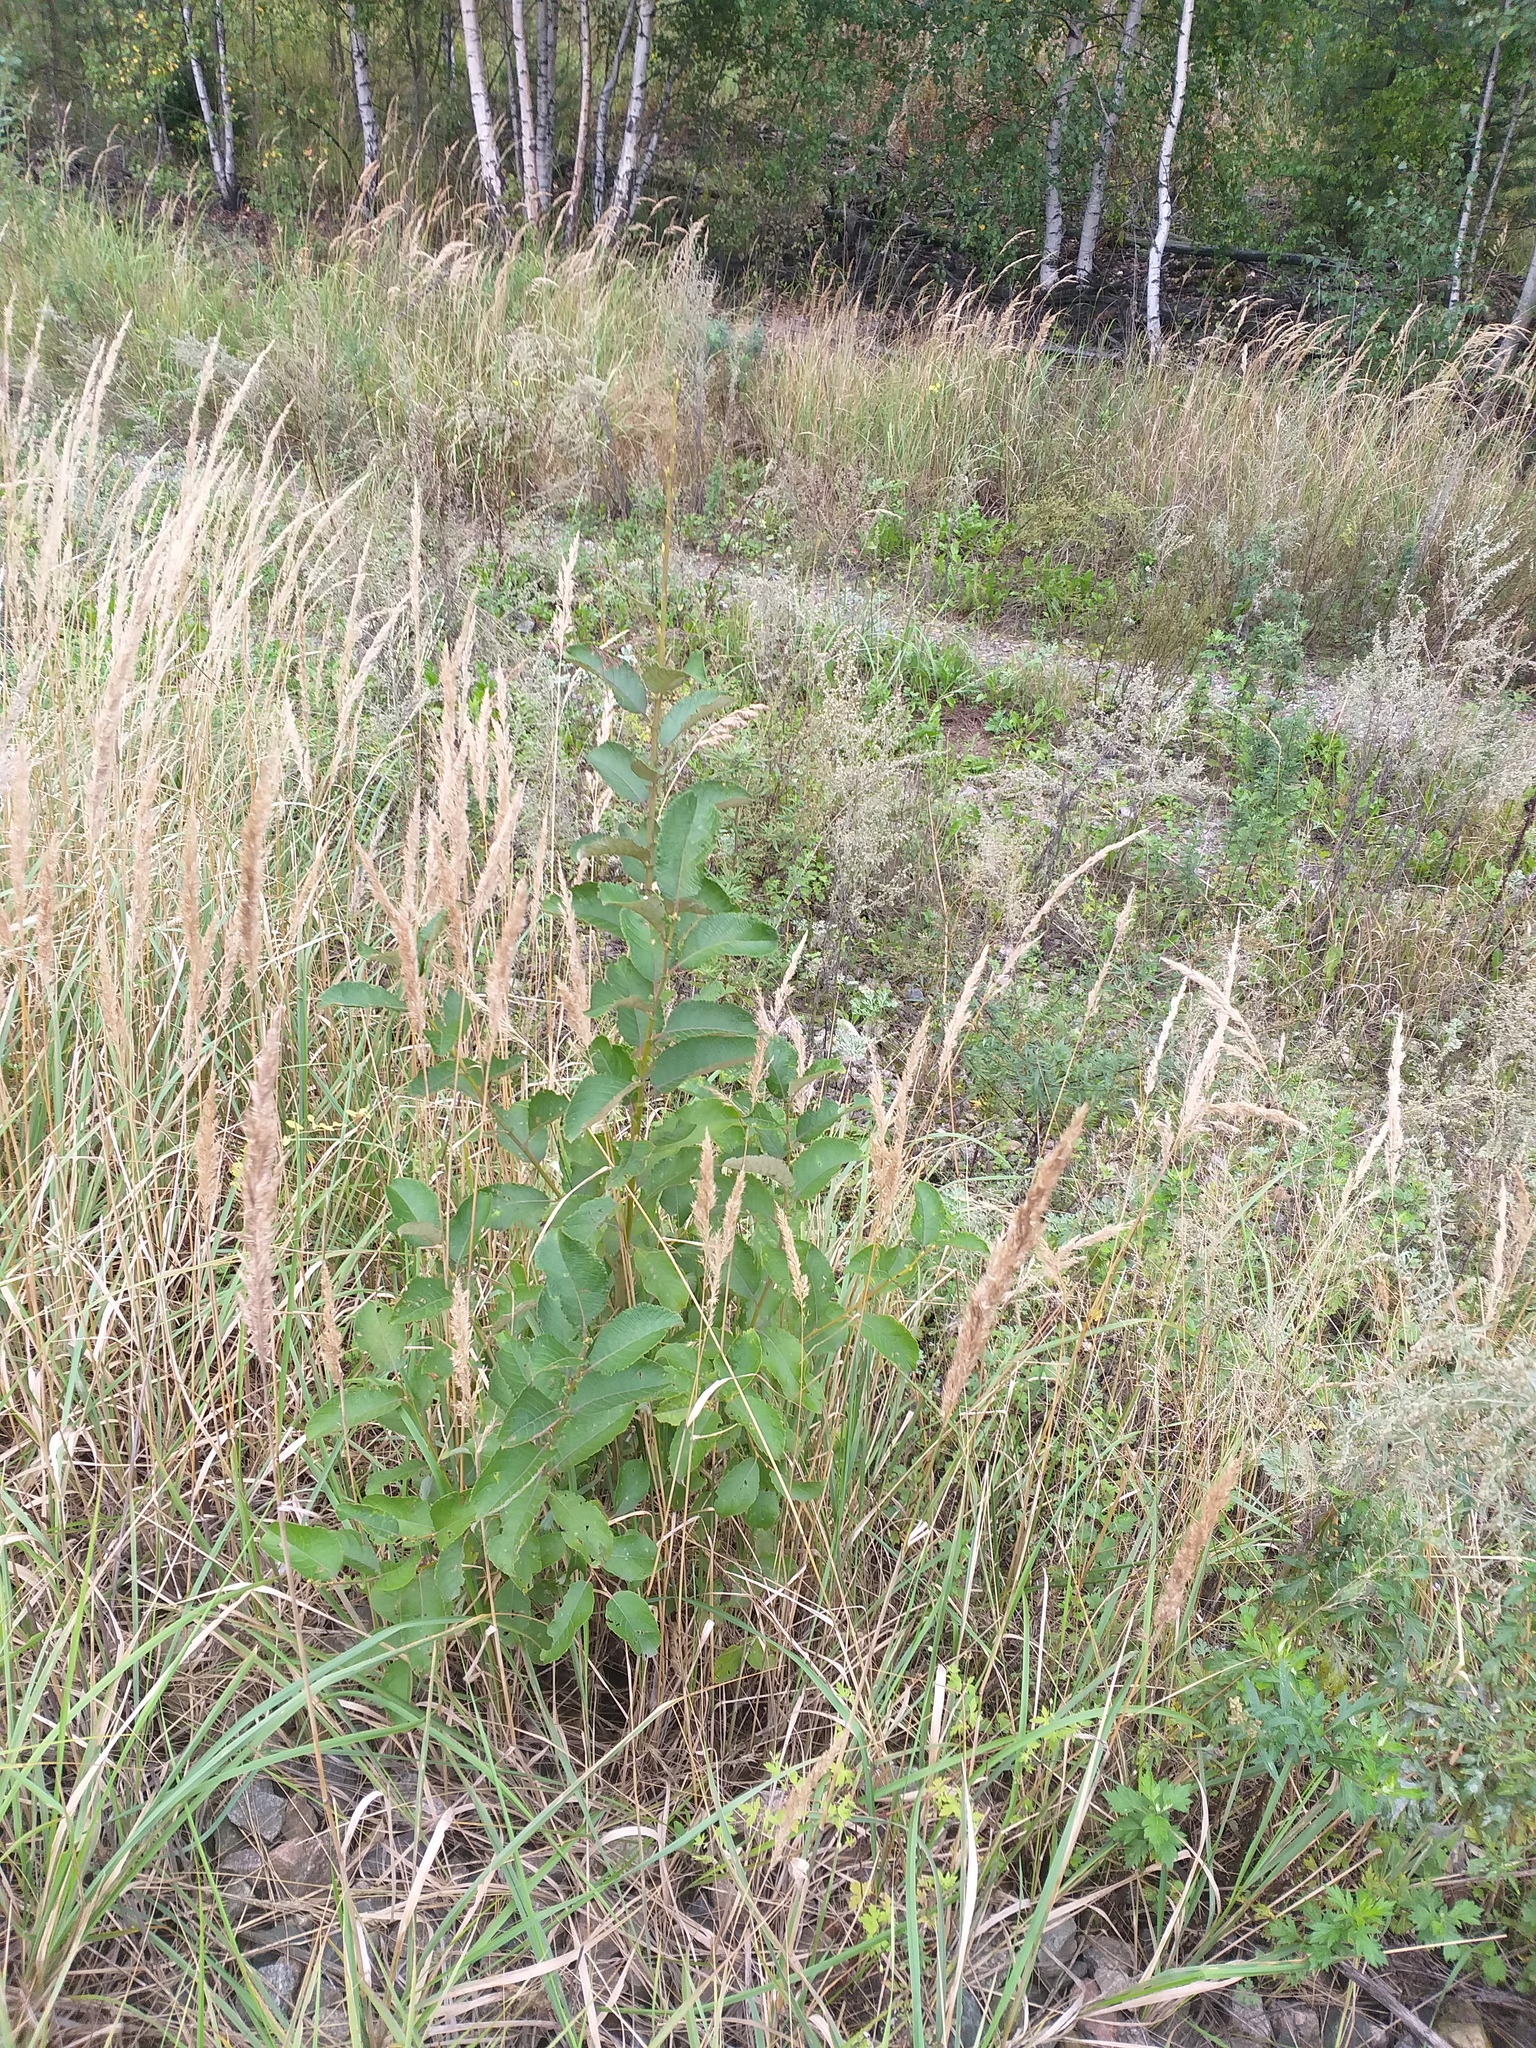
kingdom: Plantae
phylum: Tracheophyta
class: Magnoliopsida
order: Malpighiales
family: Salicaceae
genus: Salix
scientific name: Salix caprea
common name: Goat willow
